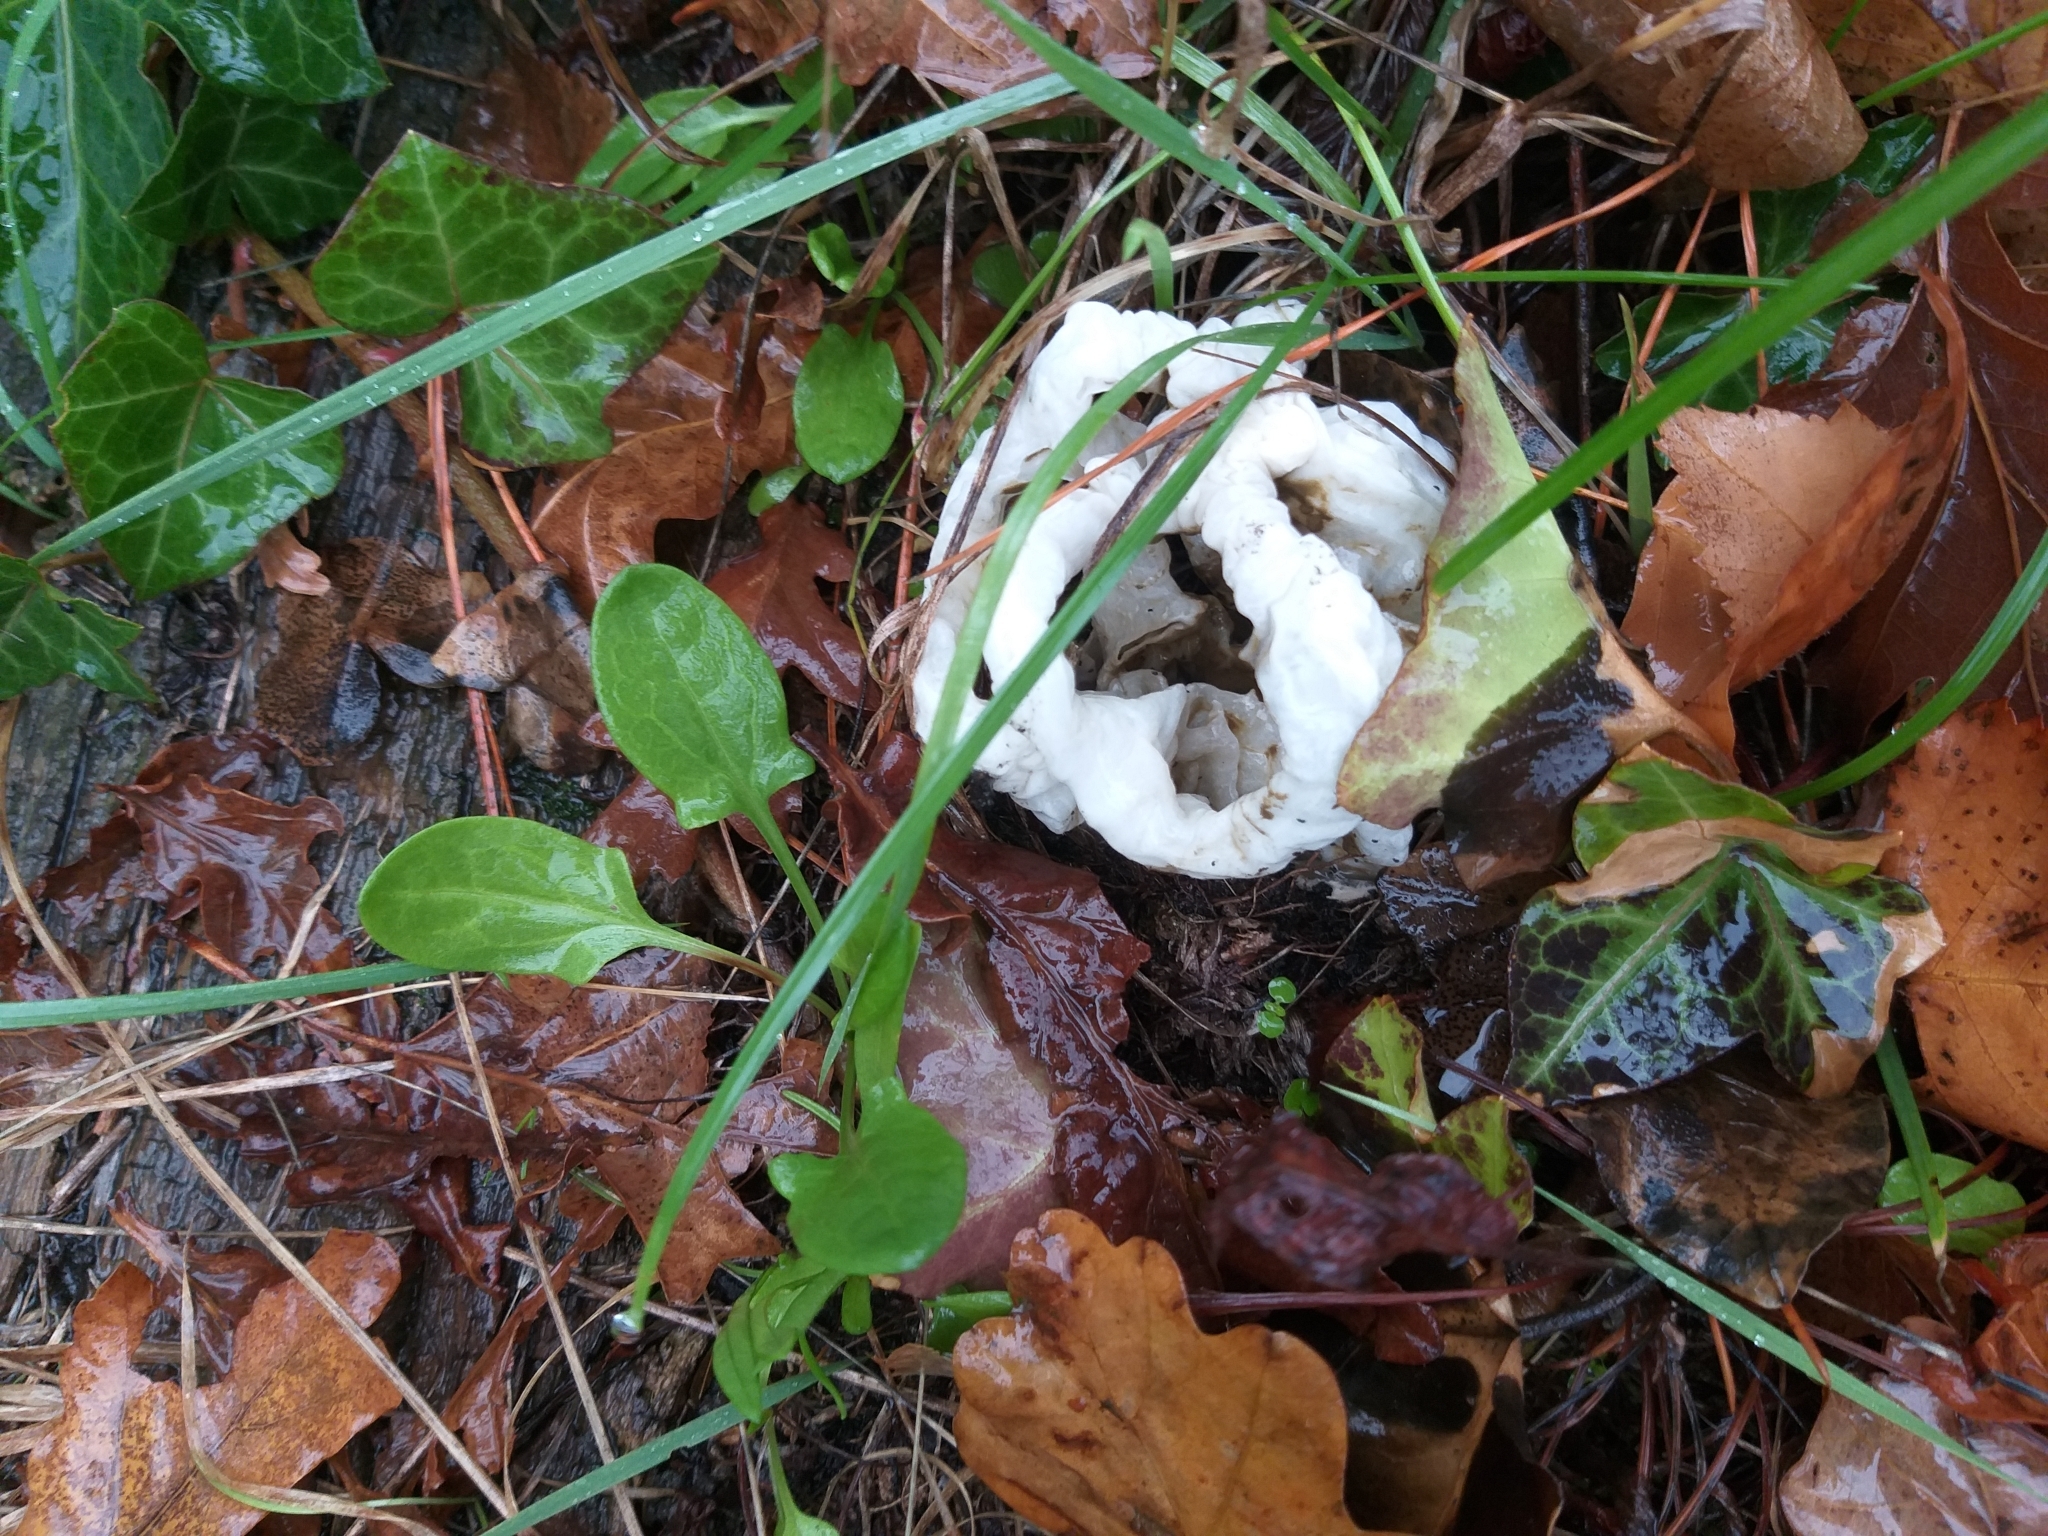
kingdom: Fungi
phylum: Basidiomycota
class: Agaricomycetes
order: Phallales
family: Phallaceae
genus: Ileodictyon
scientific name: Ileodictyon cibarium
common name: Basket fungus
